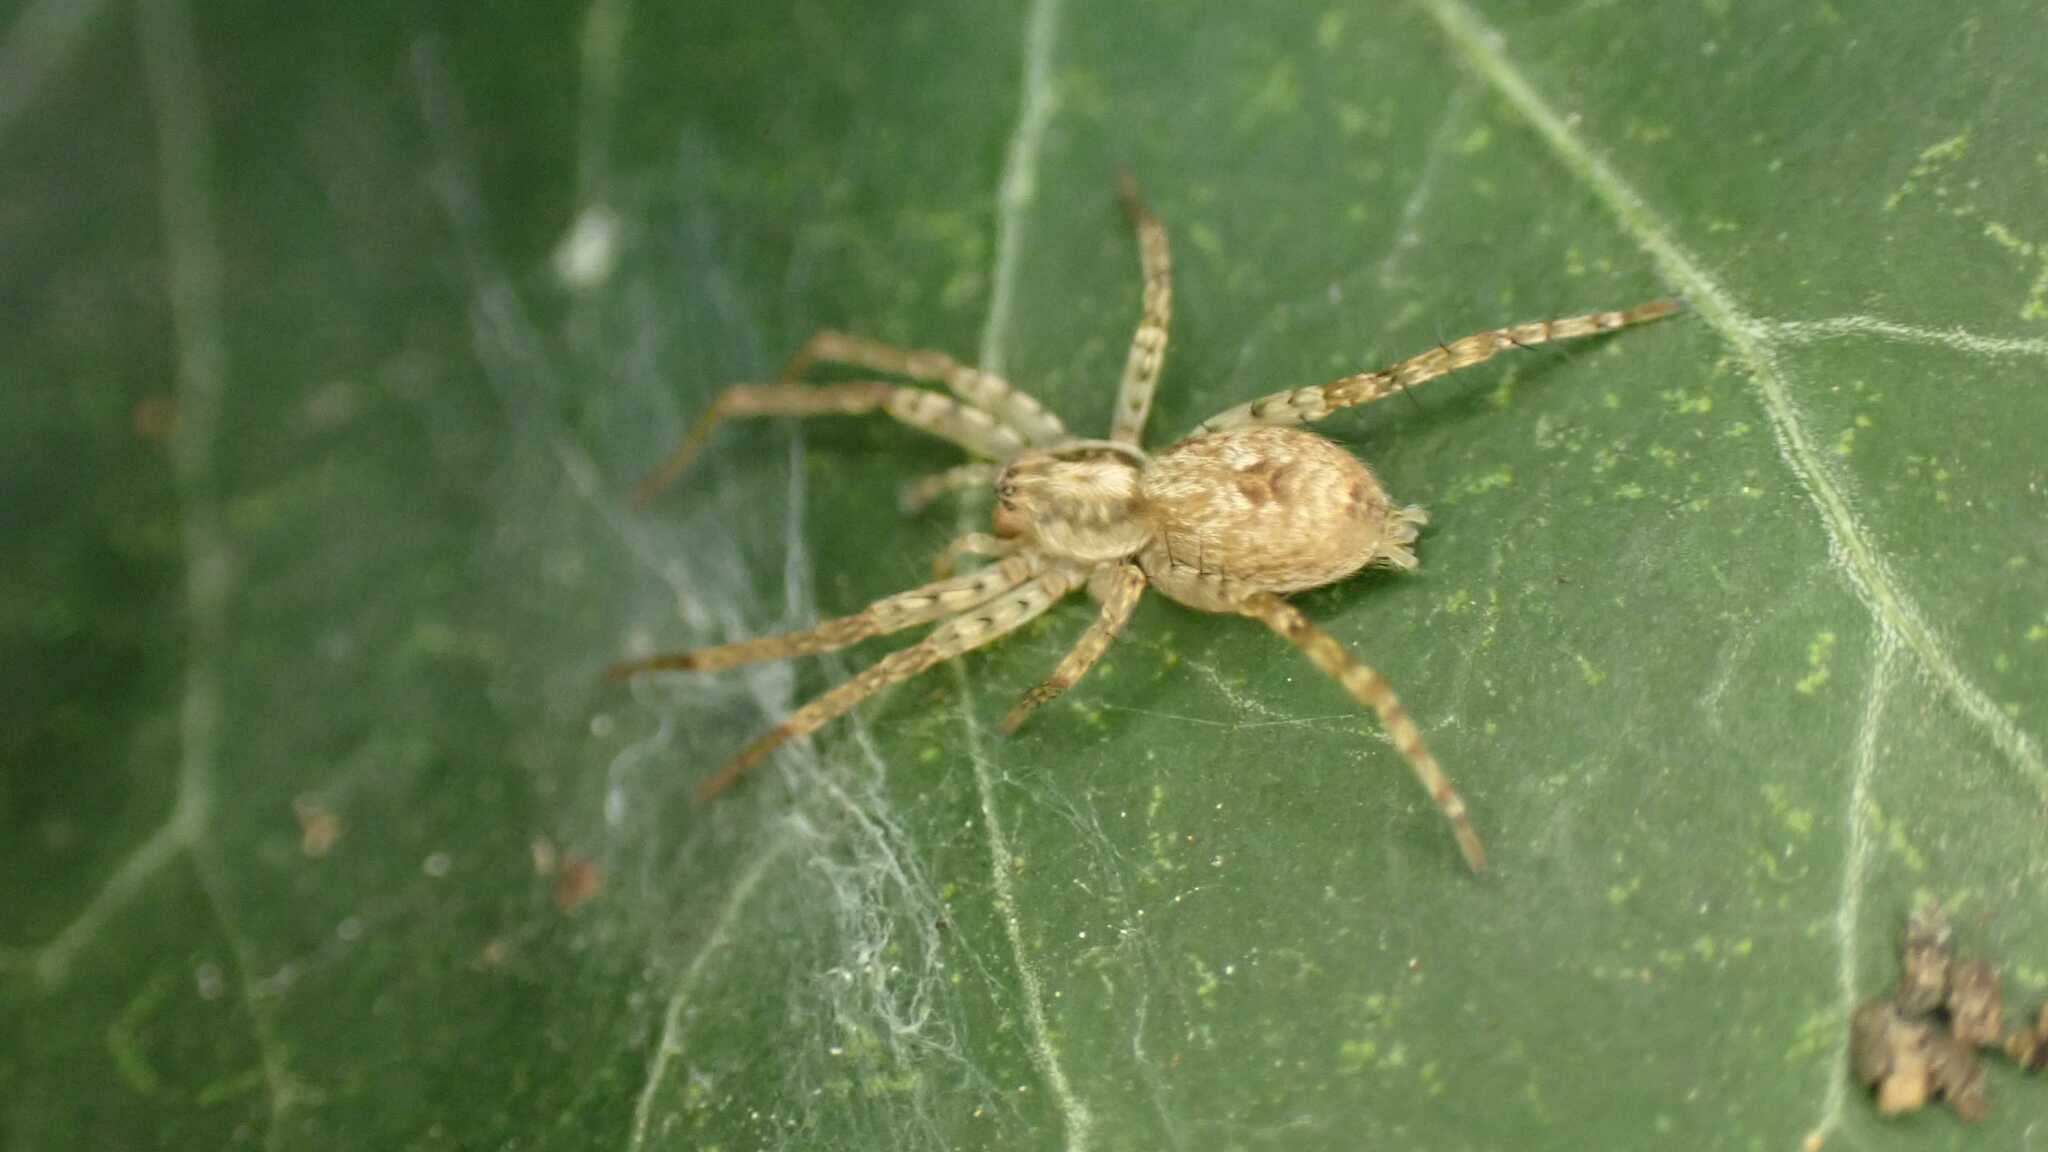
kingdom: Animalia
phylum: Arthropoda
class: Arachnida
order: Araneae
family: Anyphaenidae
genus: Anyphaena
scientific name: Anyphaena accentuata
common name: Buzzing spider
